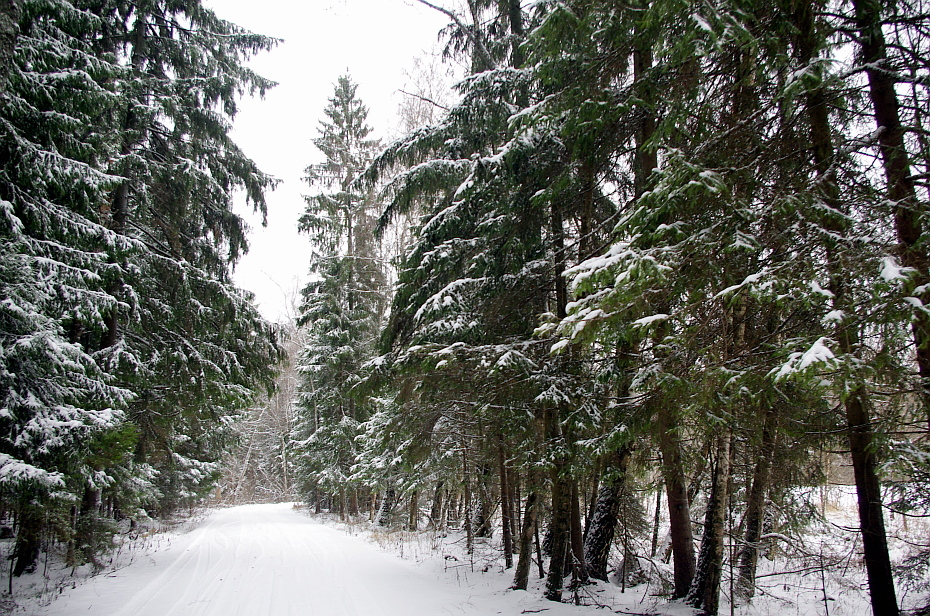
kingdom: Plantae
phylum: Tracheophyta
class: Pinopsida
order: Pinales
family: Pinaceae
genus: Picea
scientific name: Picea abies
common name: Norway spruce
